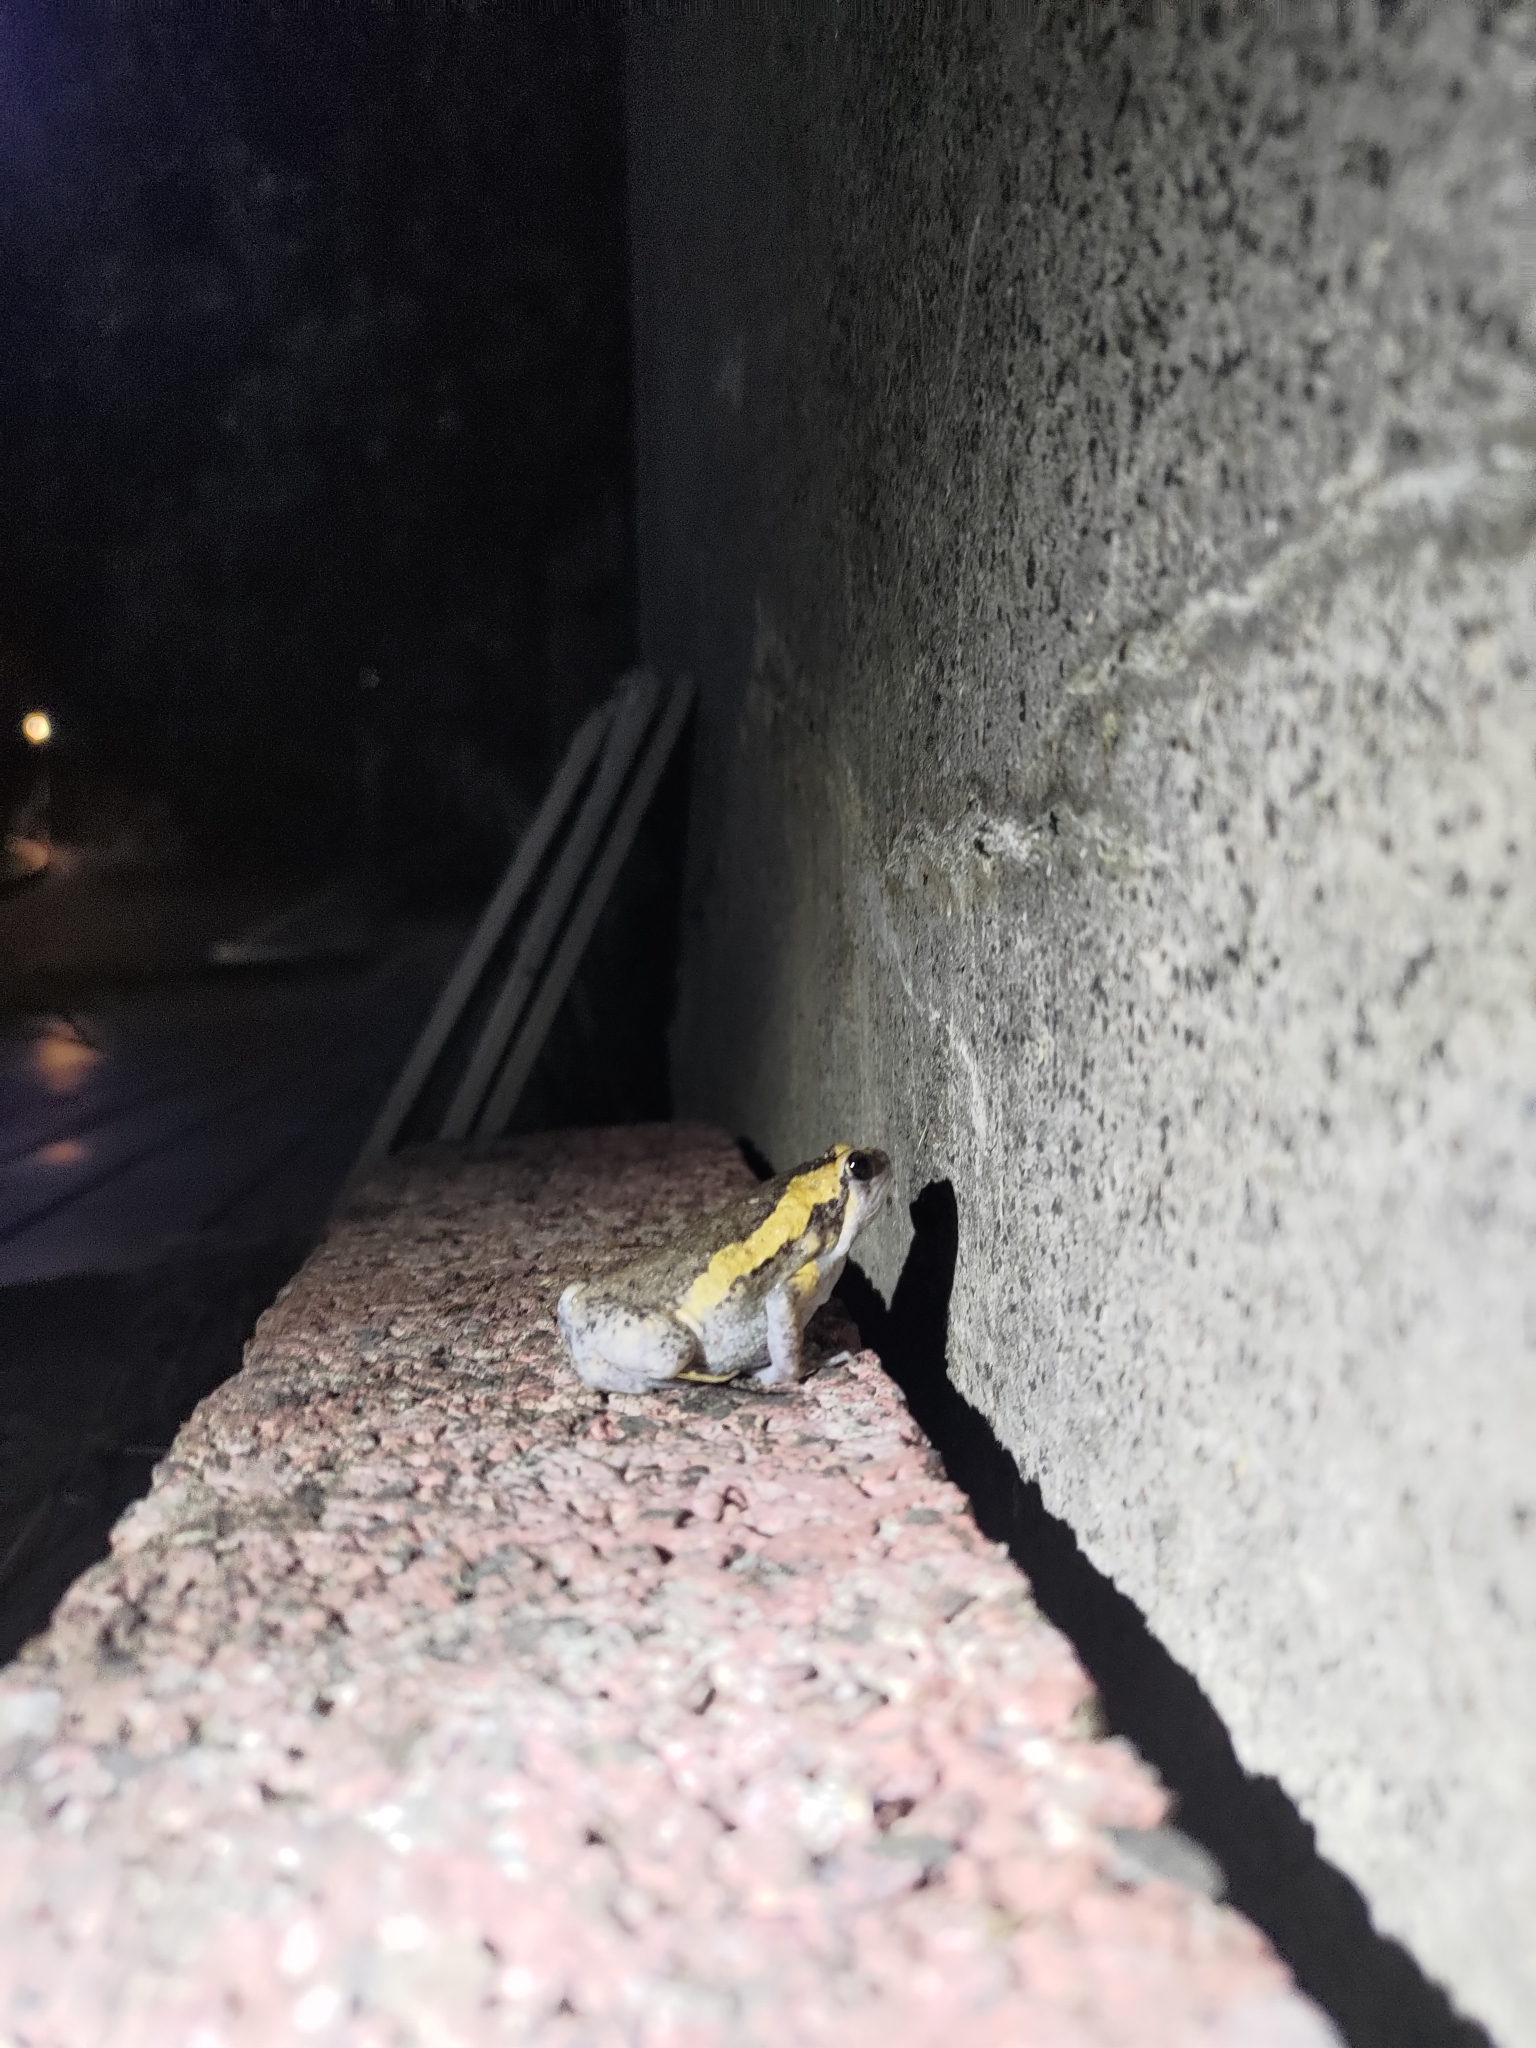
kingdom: Animalia
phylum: Chordata
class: Amphibia
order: Anura
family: Microhylidae
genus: Kaloula
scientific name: Kaloula pulchra
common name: Common,banded bullfrog
